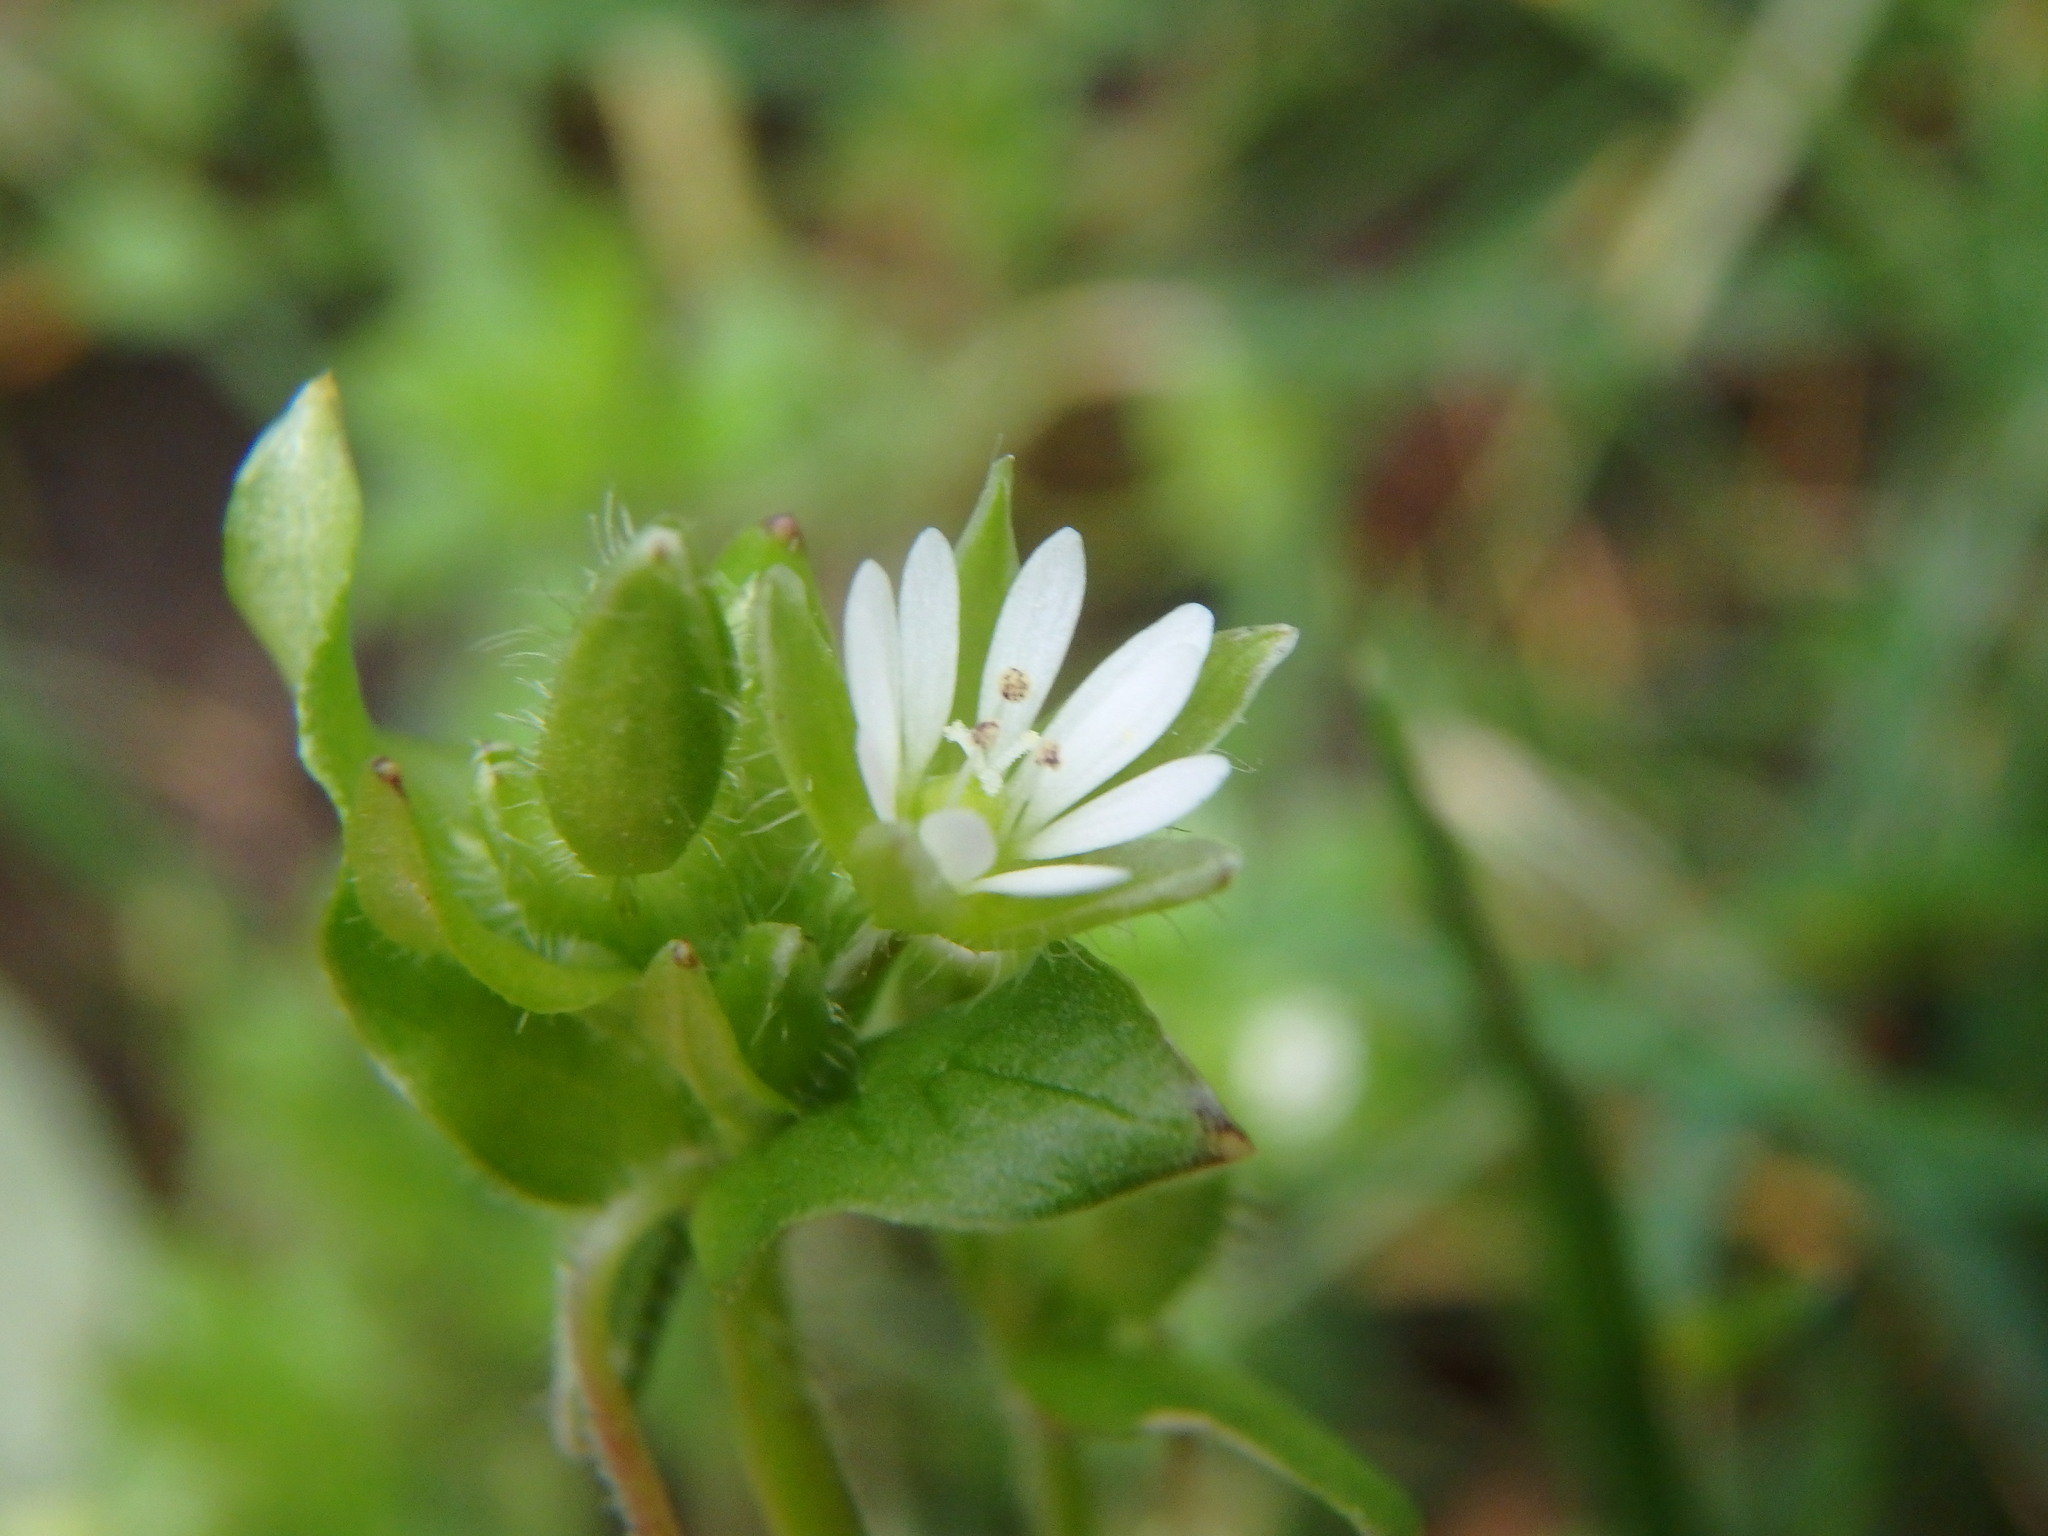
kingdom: Plantae
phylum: Tracheophyta
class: Magnoliopsida
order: Caryophyllales
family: Caryophyllaceae
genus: Stellaria
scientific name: Stellaria media
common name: Common chickweed
